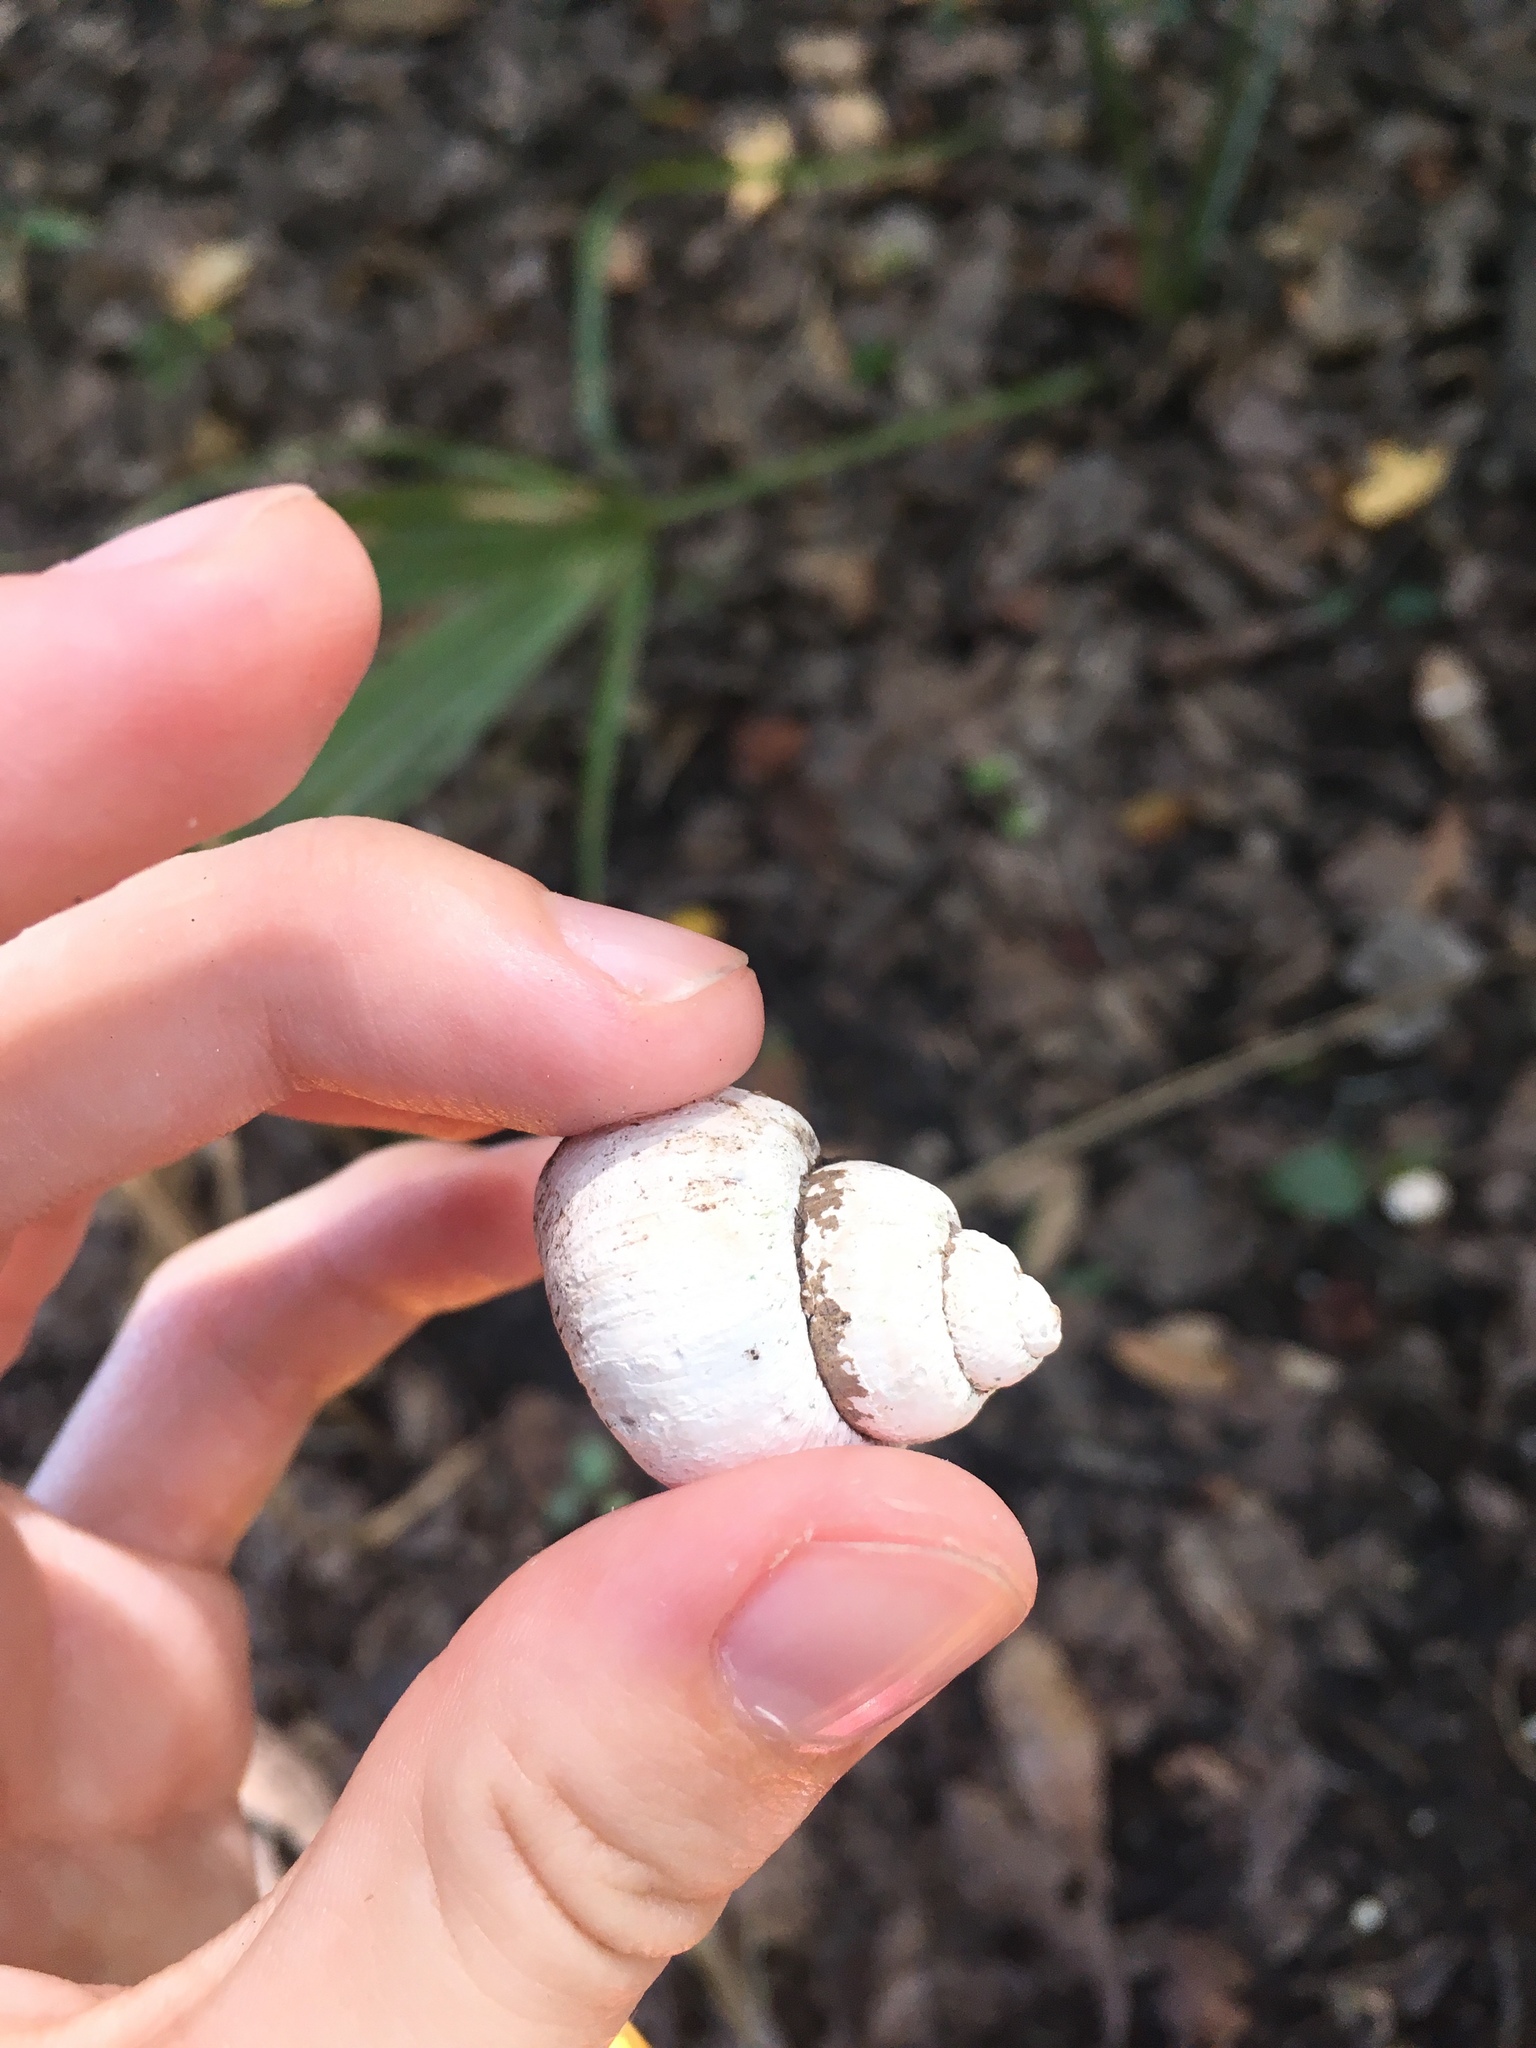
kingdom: Animalia
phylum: Mollusca
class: Gastropoda
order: Architaenioglossa
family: Viviparidae
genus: Cipangopaludina
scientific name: Cipangopaludina chinensis
